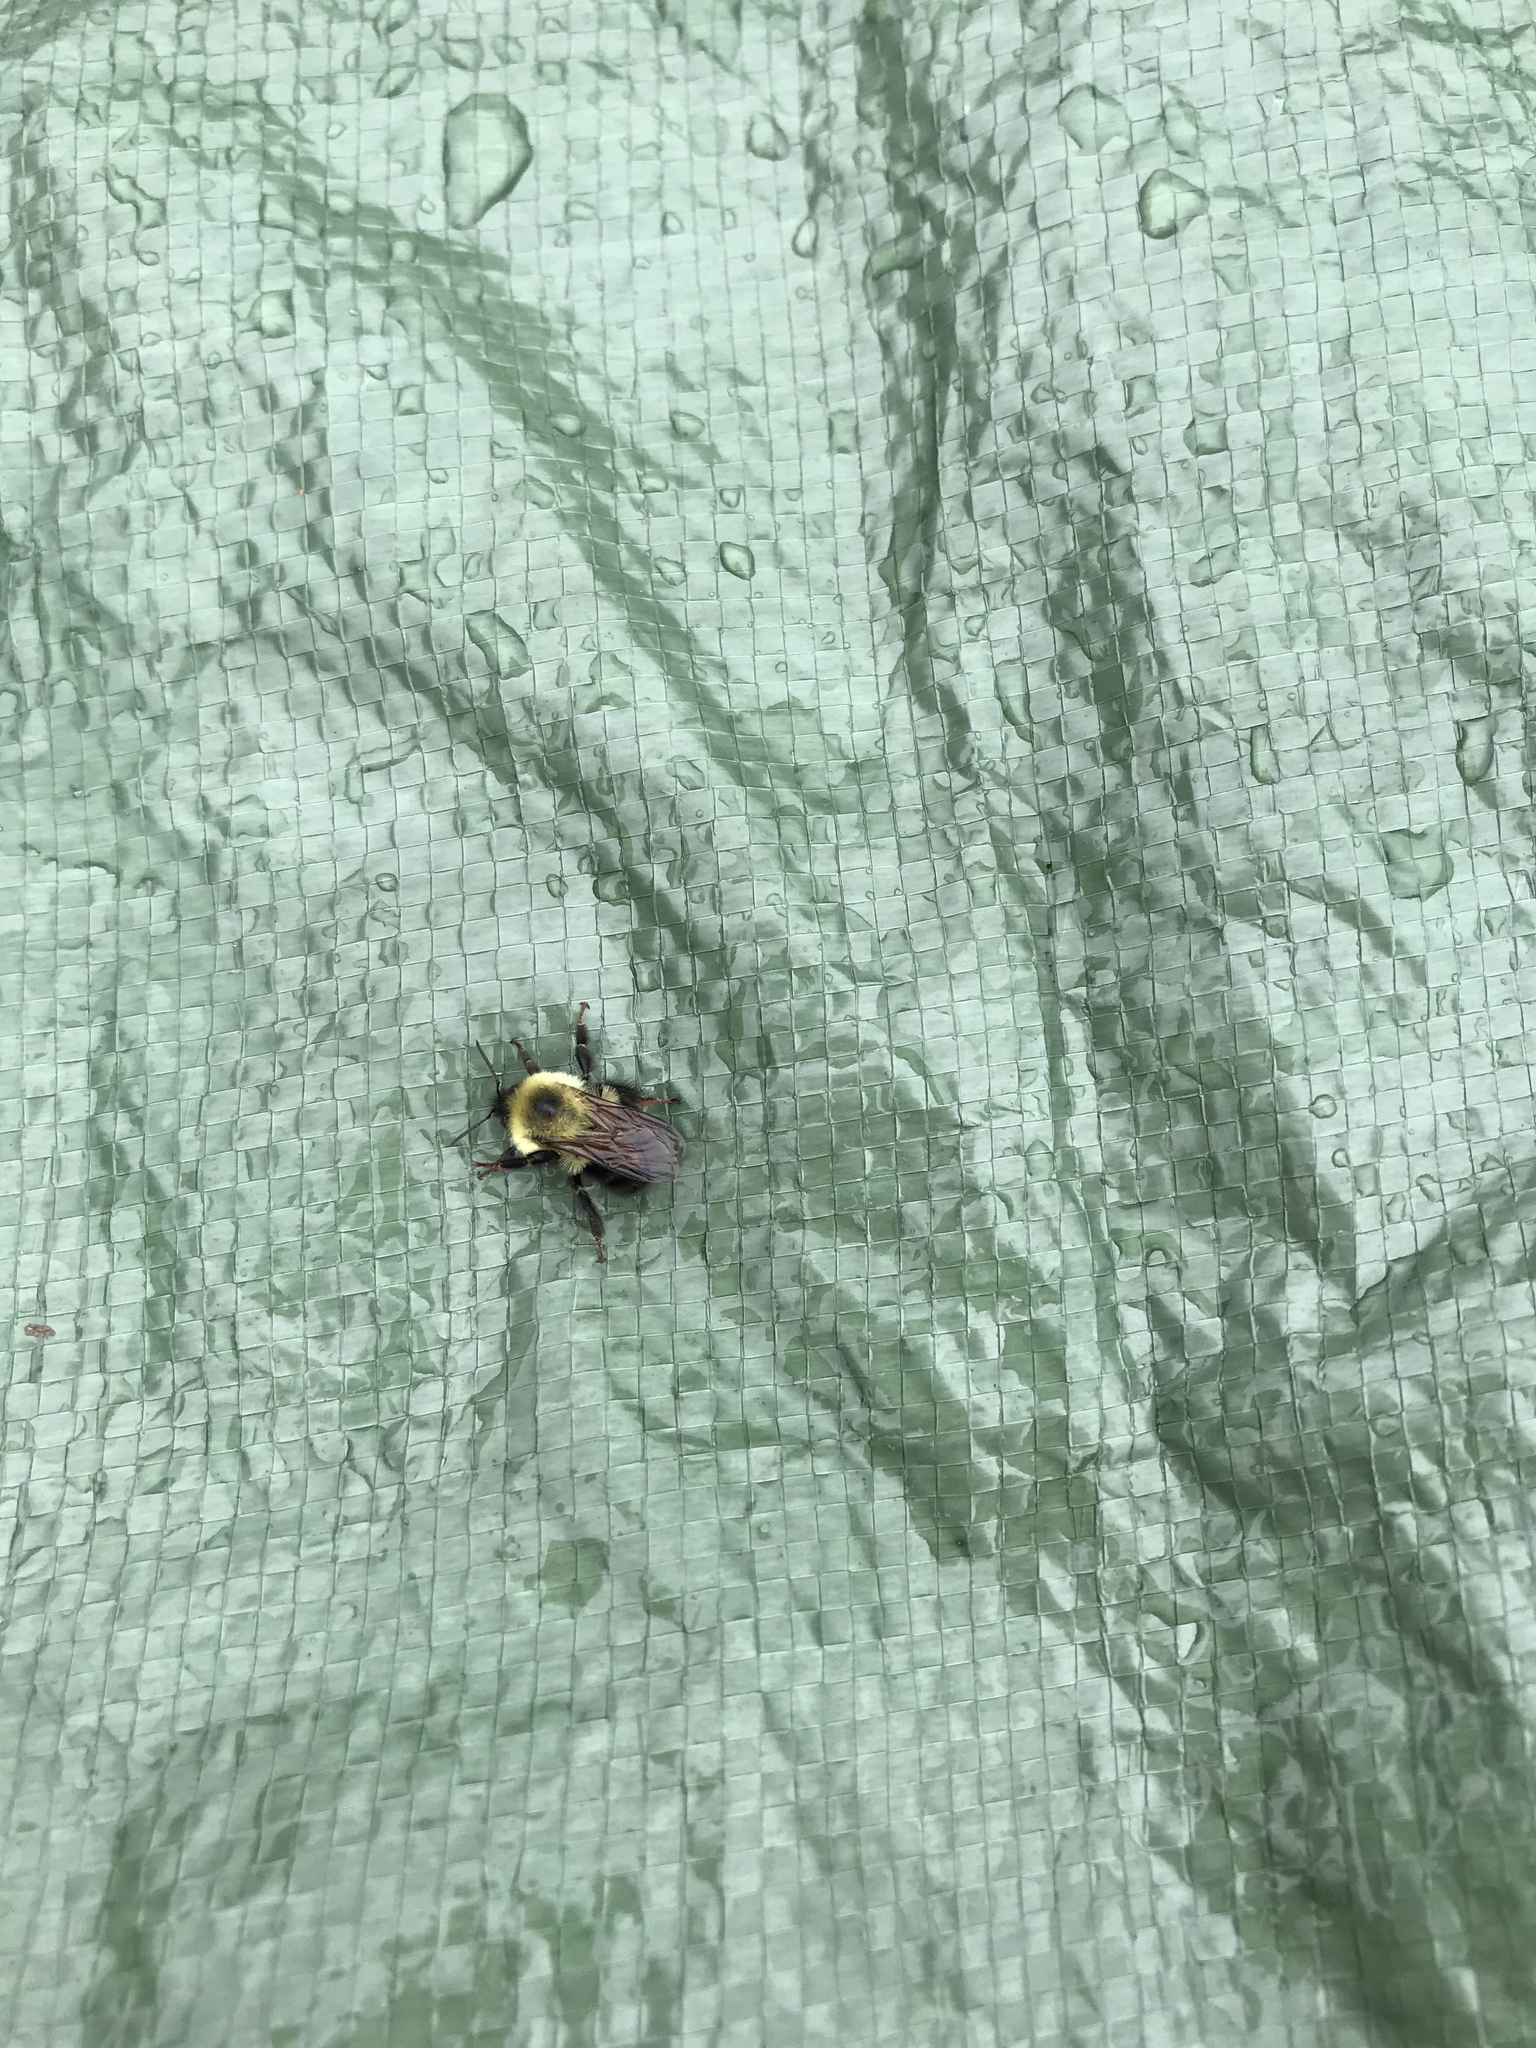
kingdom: Animalia
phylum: Arthropoda
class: Insecta
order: Hymenoptera
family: Apidae
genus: Bombus
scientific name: Bombus bimaculatus
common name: Two-spotted bumble bee
